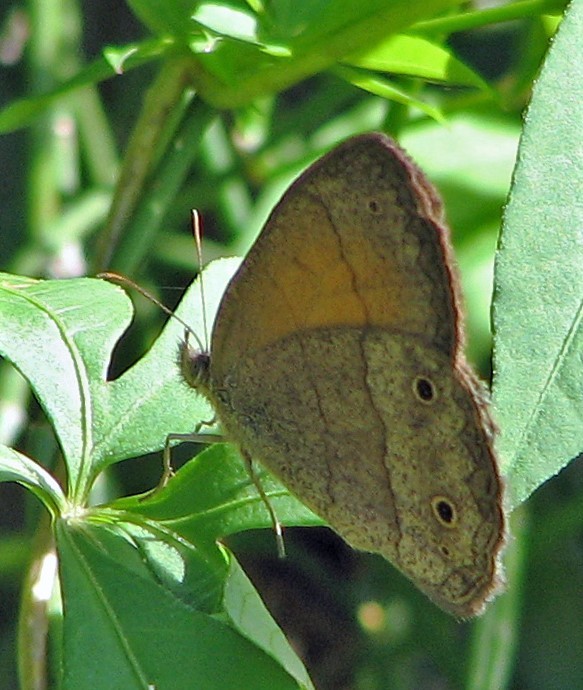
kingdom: Animalia
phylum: Arthropoda
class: Insecta
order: Lepidoptera
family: Nymphalidae
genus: Yphthimoides
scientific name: Yphthimoides celmis
